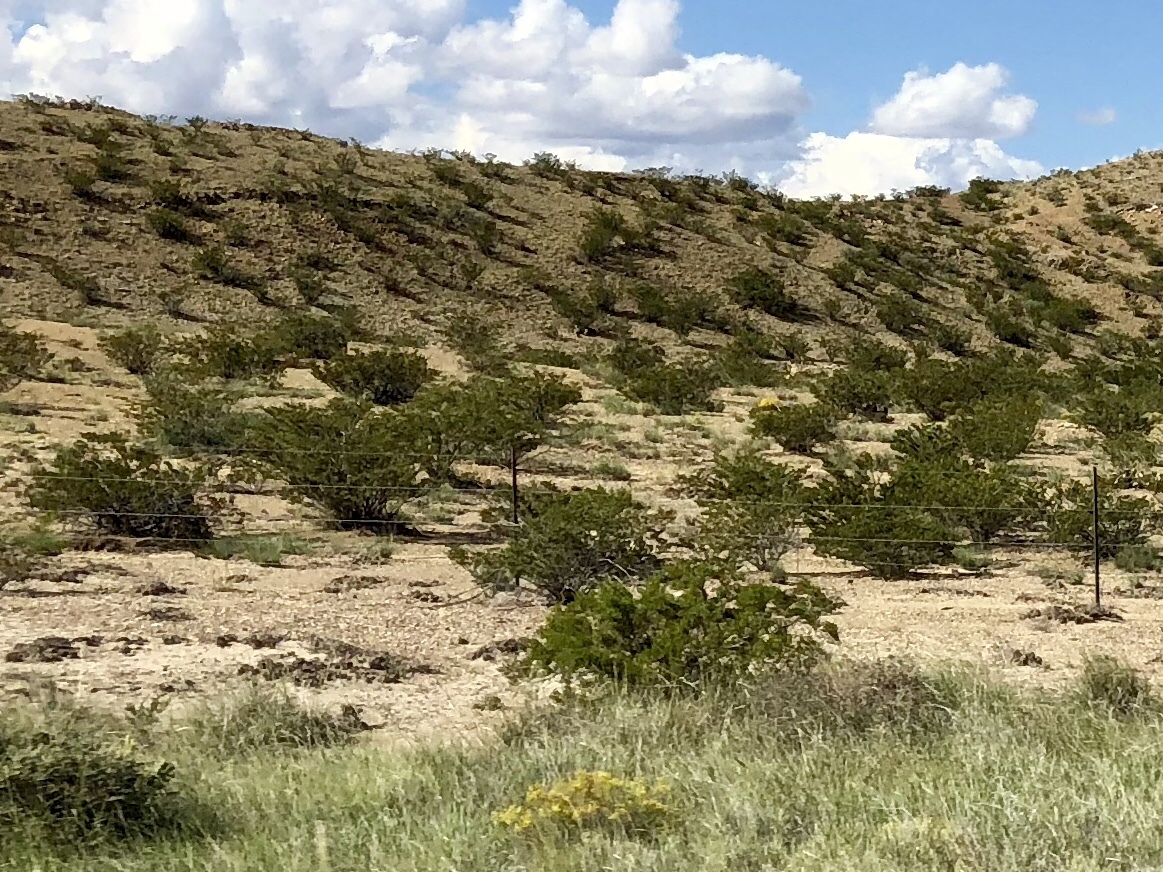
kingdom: Plantae
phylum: Tracheophyta
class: Magnoliopsida
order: Zygophyllales
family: Zygophyllaceae
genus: Larrea
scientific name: Larrea tridentata
